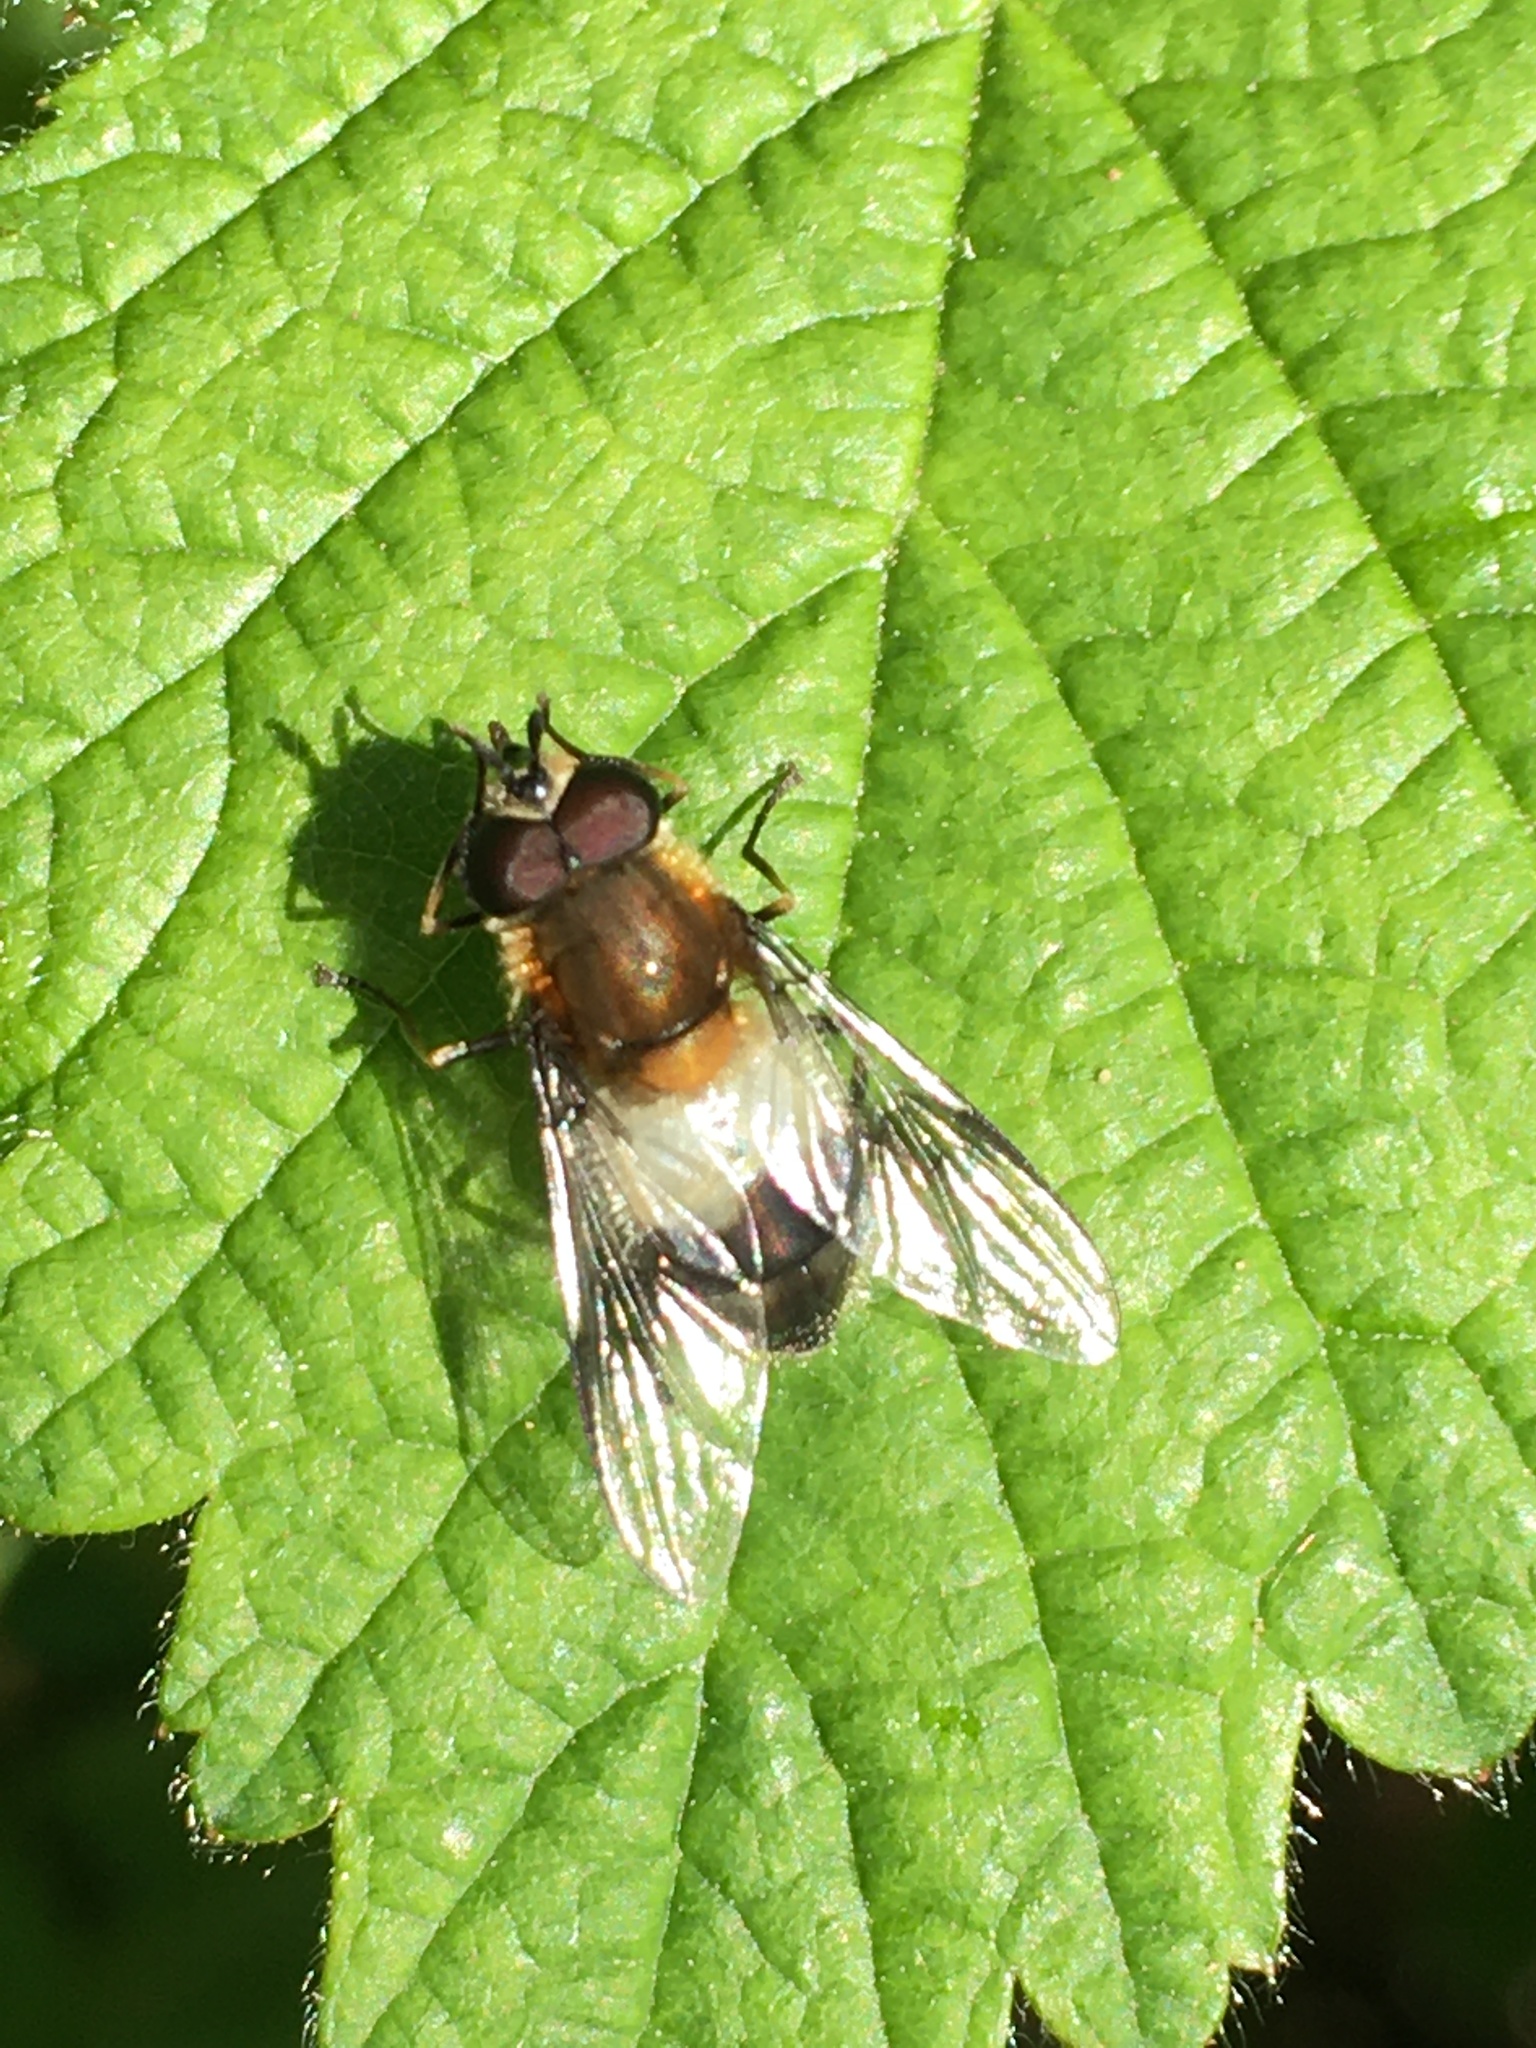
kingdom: Animalia
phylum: Arthropoda
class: Insecta
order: Diptera
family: Syrphidae
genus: Leucozona
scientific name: Leucozona lucorum
